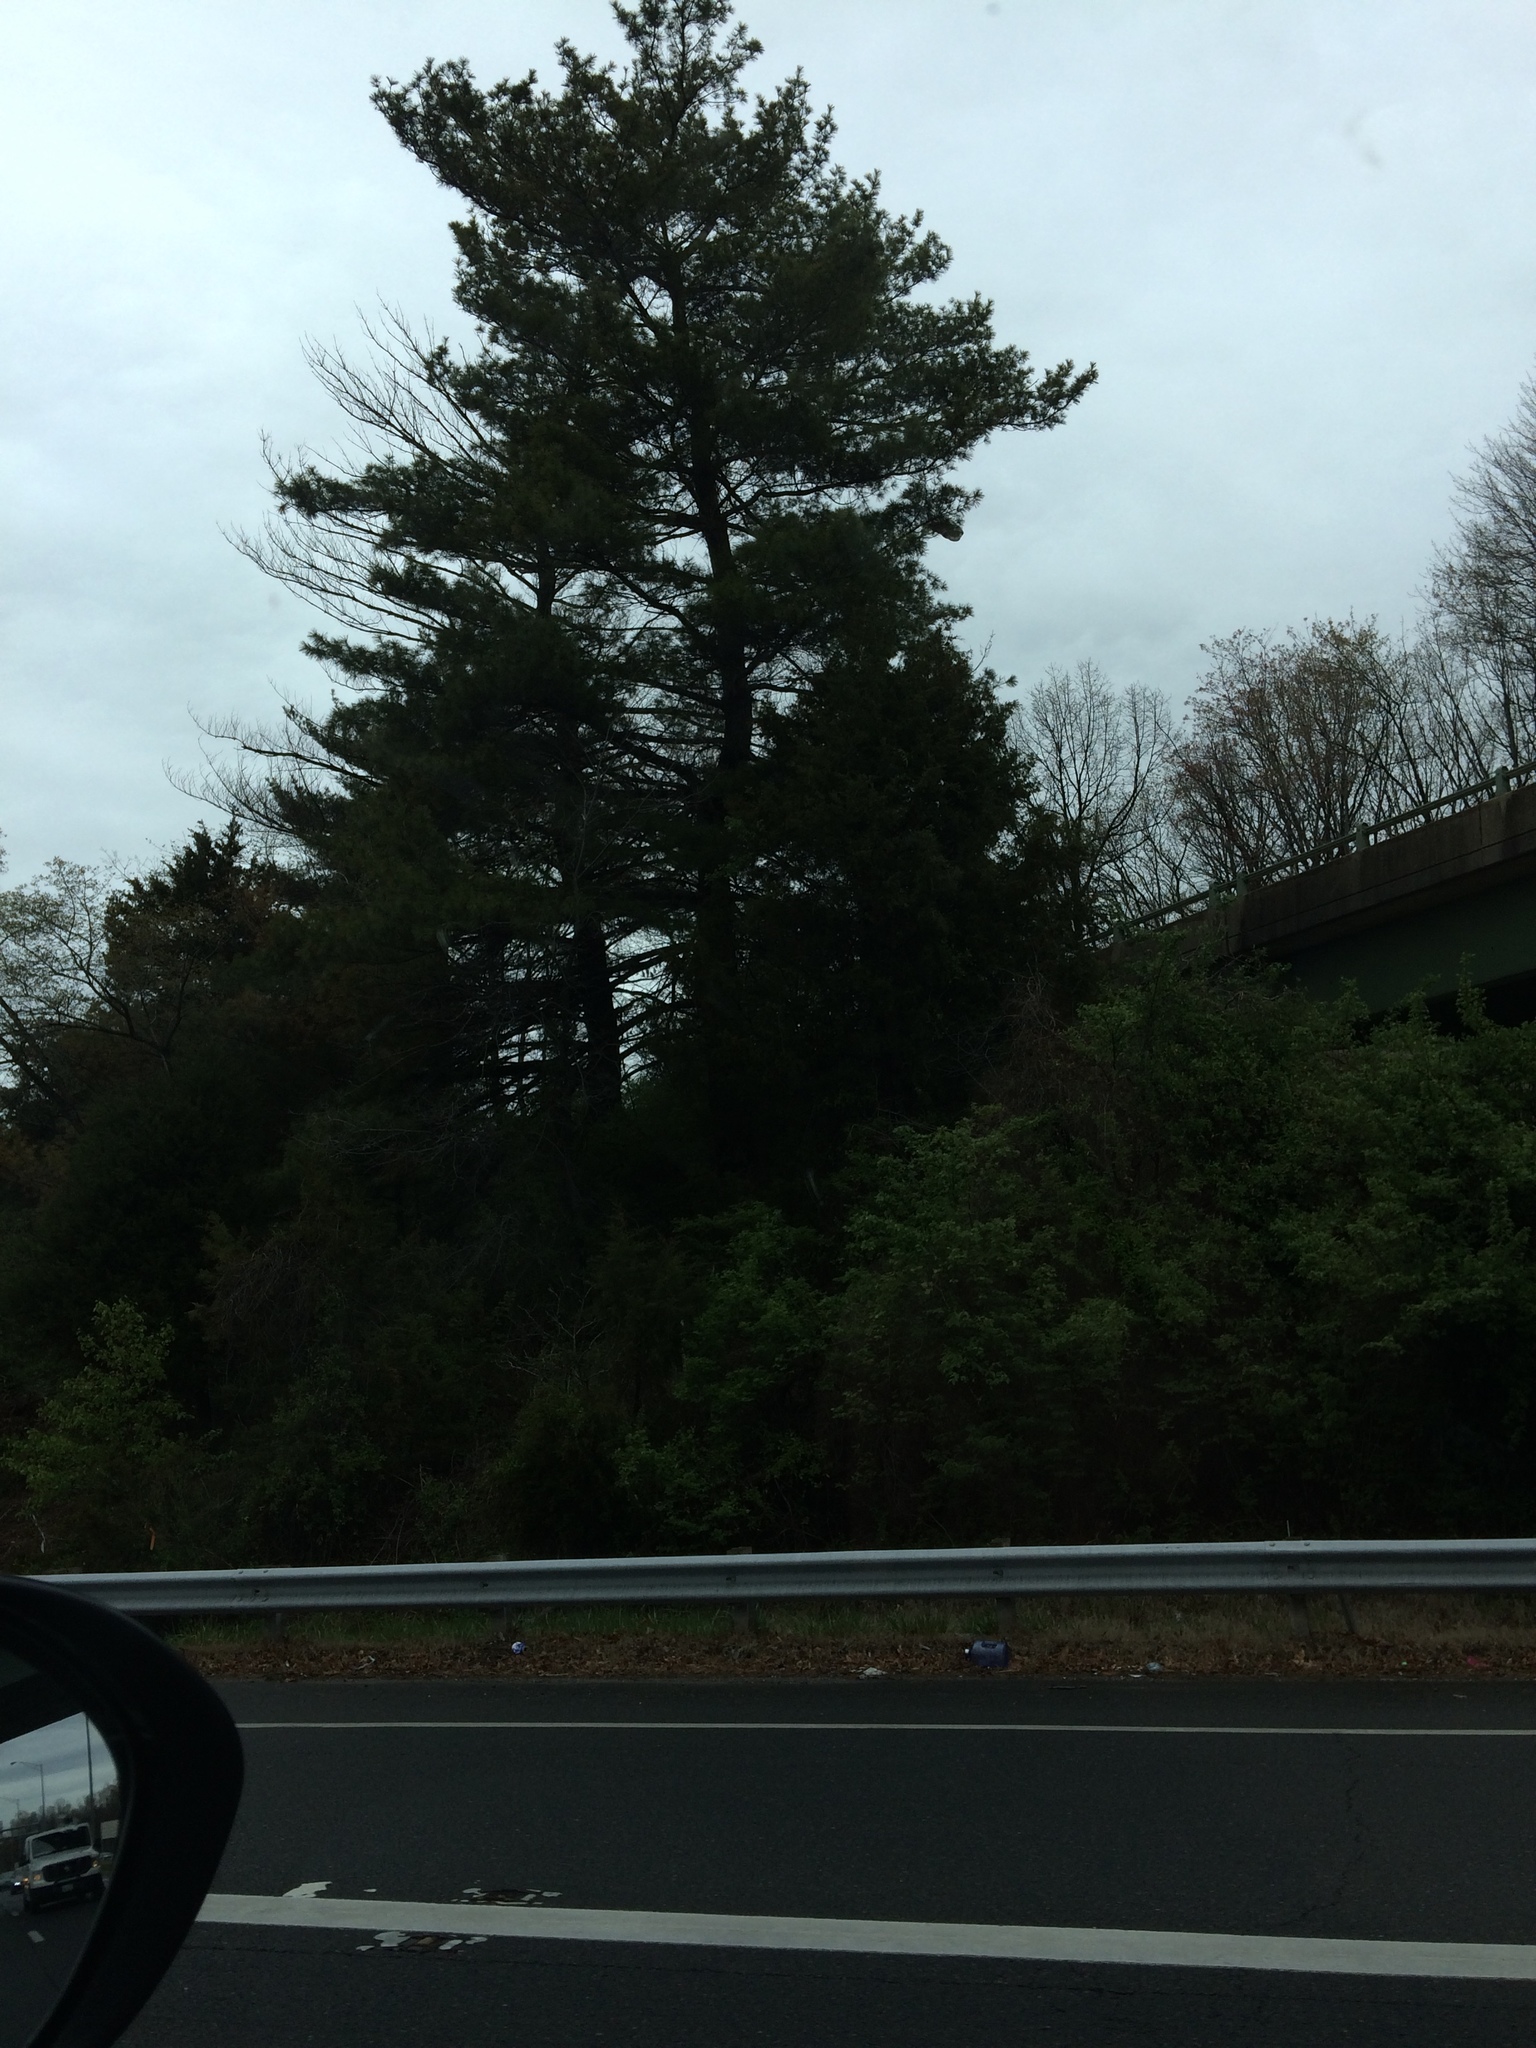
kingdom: Plantae
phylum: Tracheophyta
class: Pinopsida
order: Pinales
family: Pinaceae
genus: Pinus
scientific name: Pinus strobus
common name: Weymouth pine
